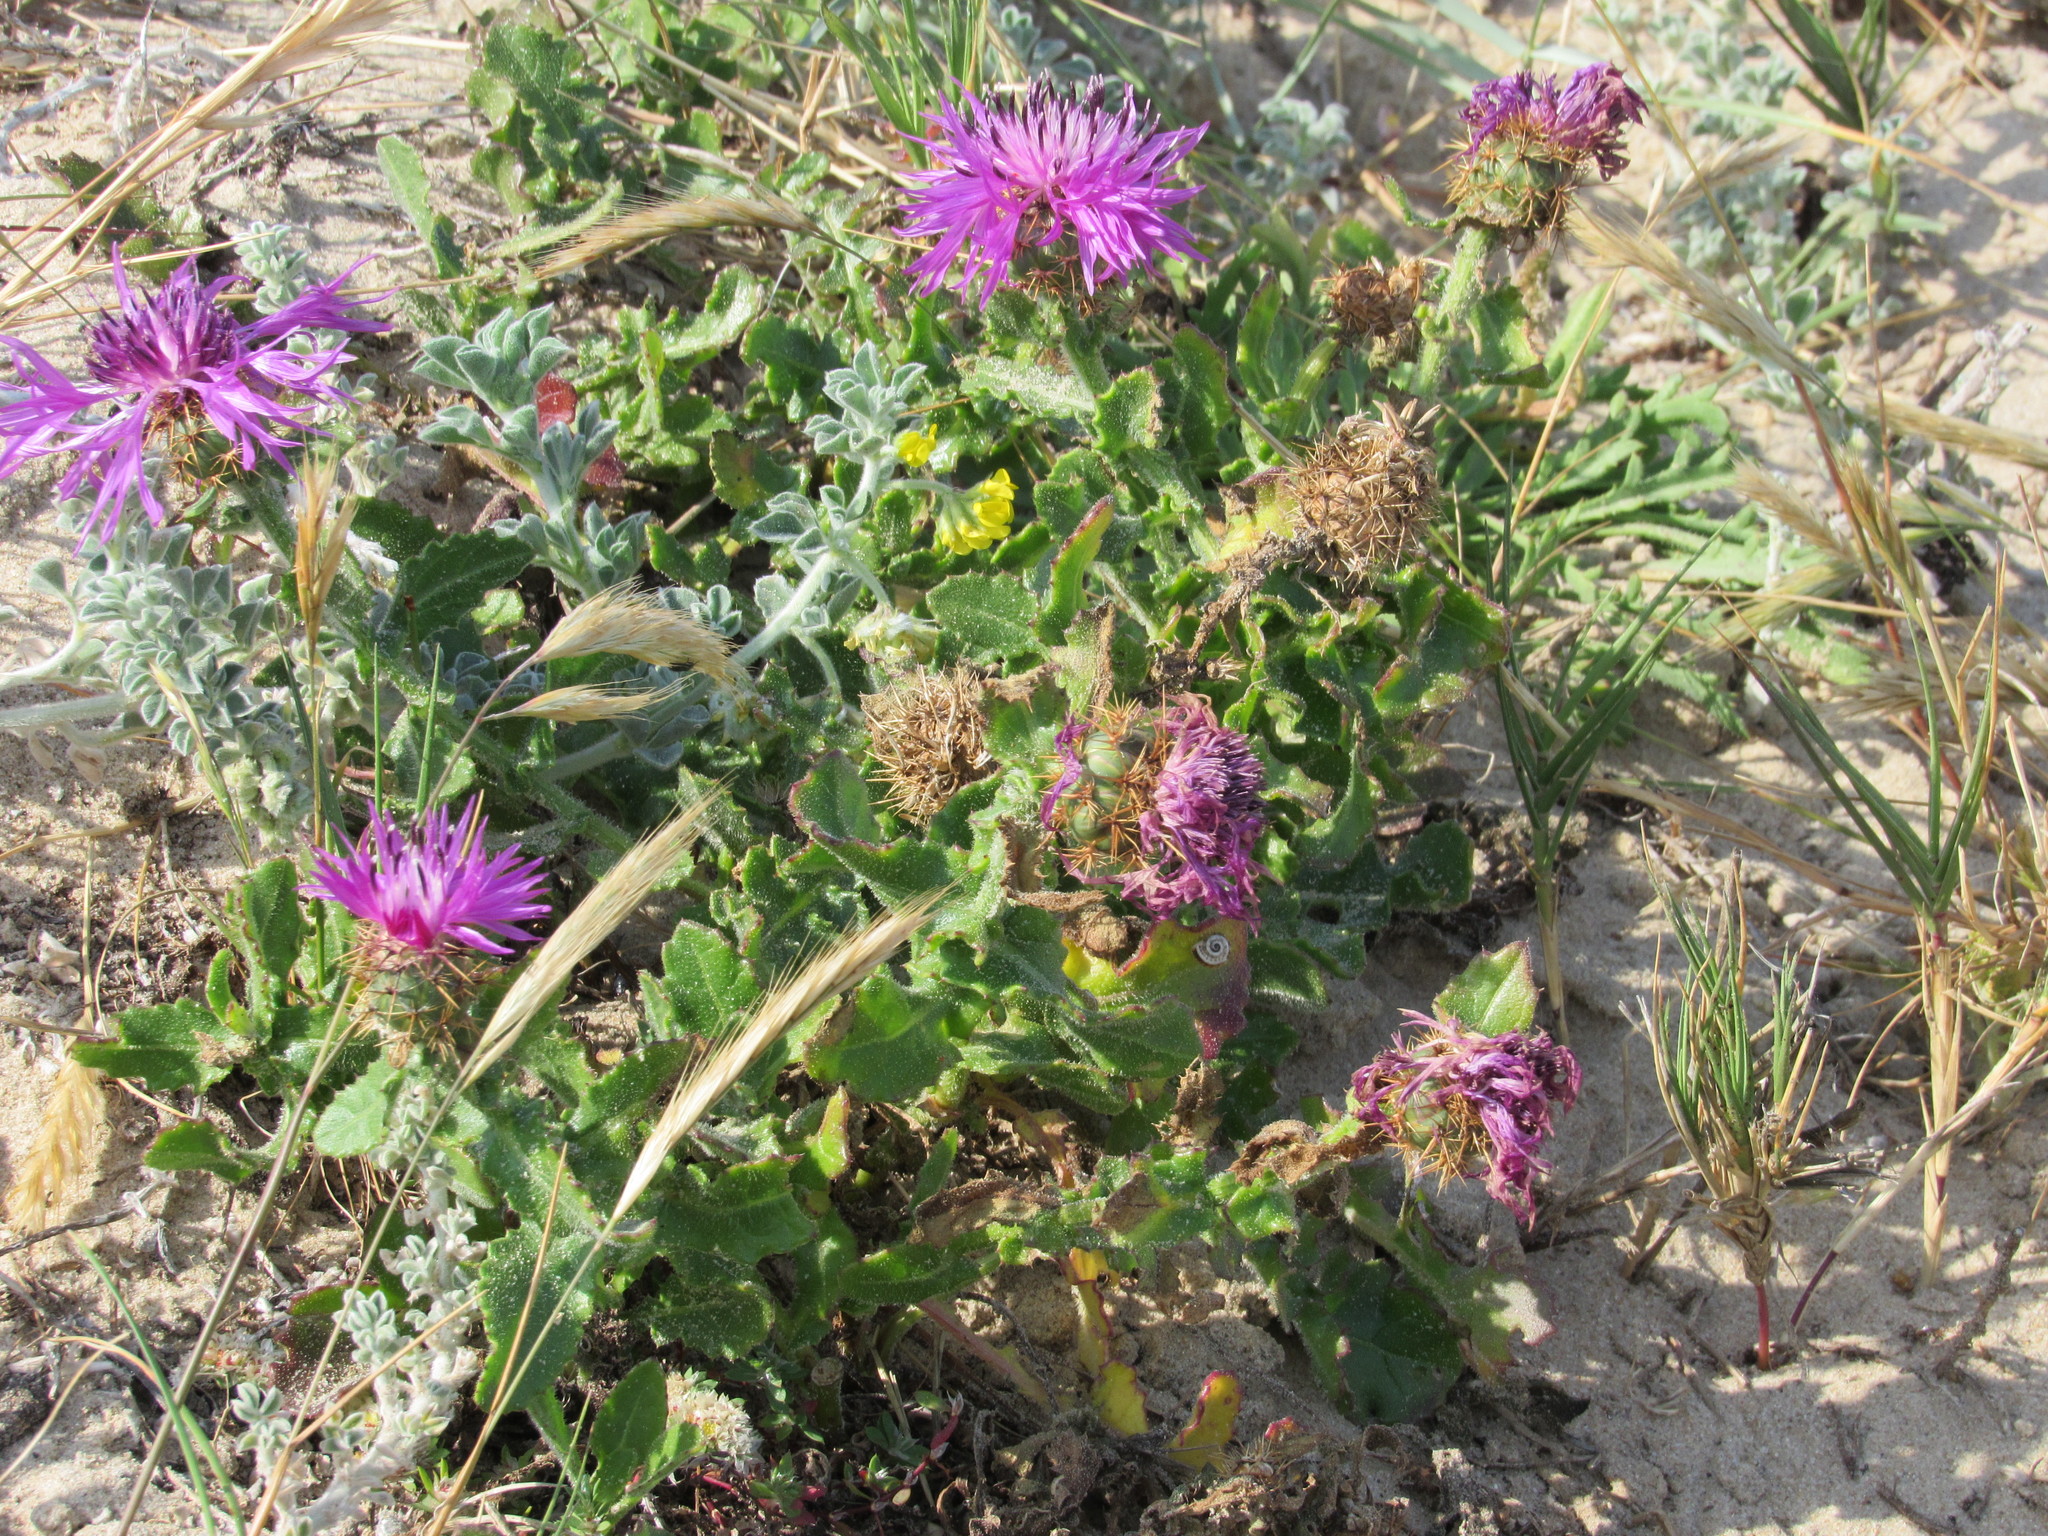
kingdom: Plantae
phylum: Tracheophyta
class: Magnoliopsida
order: Asterales
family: Asteraceae
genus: Centaurea
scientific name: Centaurea polyacantha
